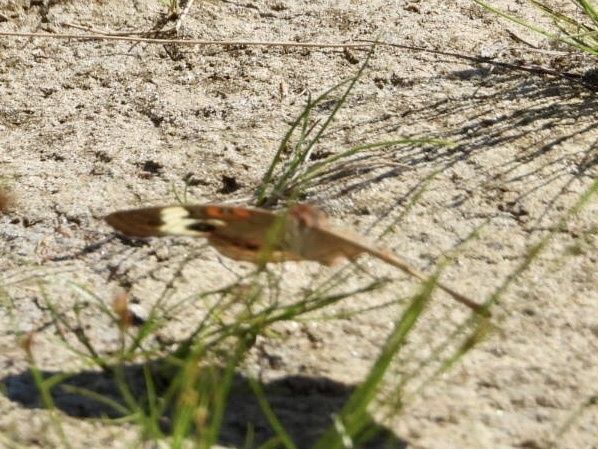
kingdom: Animalia
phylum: Arthropoda
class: Insecta
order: Lepidoptera
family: Nymphalidae
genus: Junonia
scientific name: Junonia coenia
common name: Common buckeye
